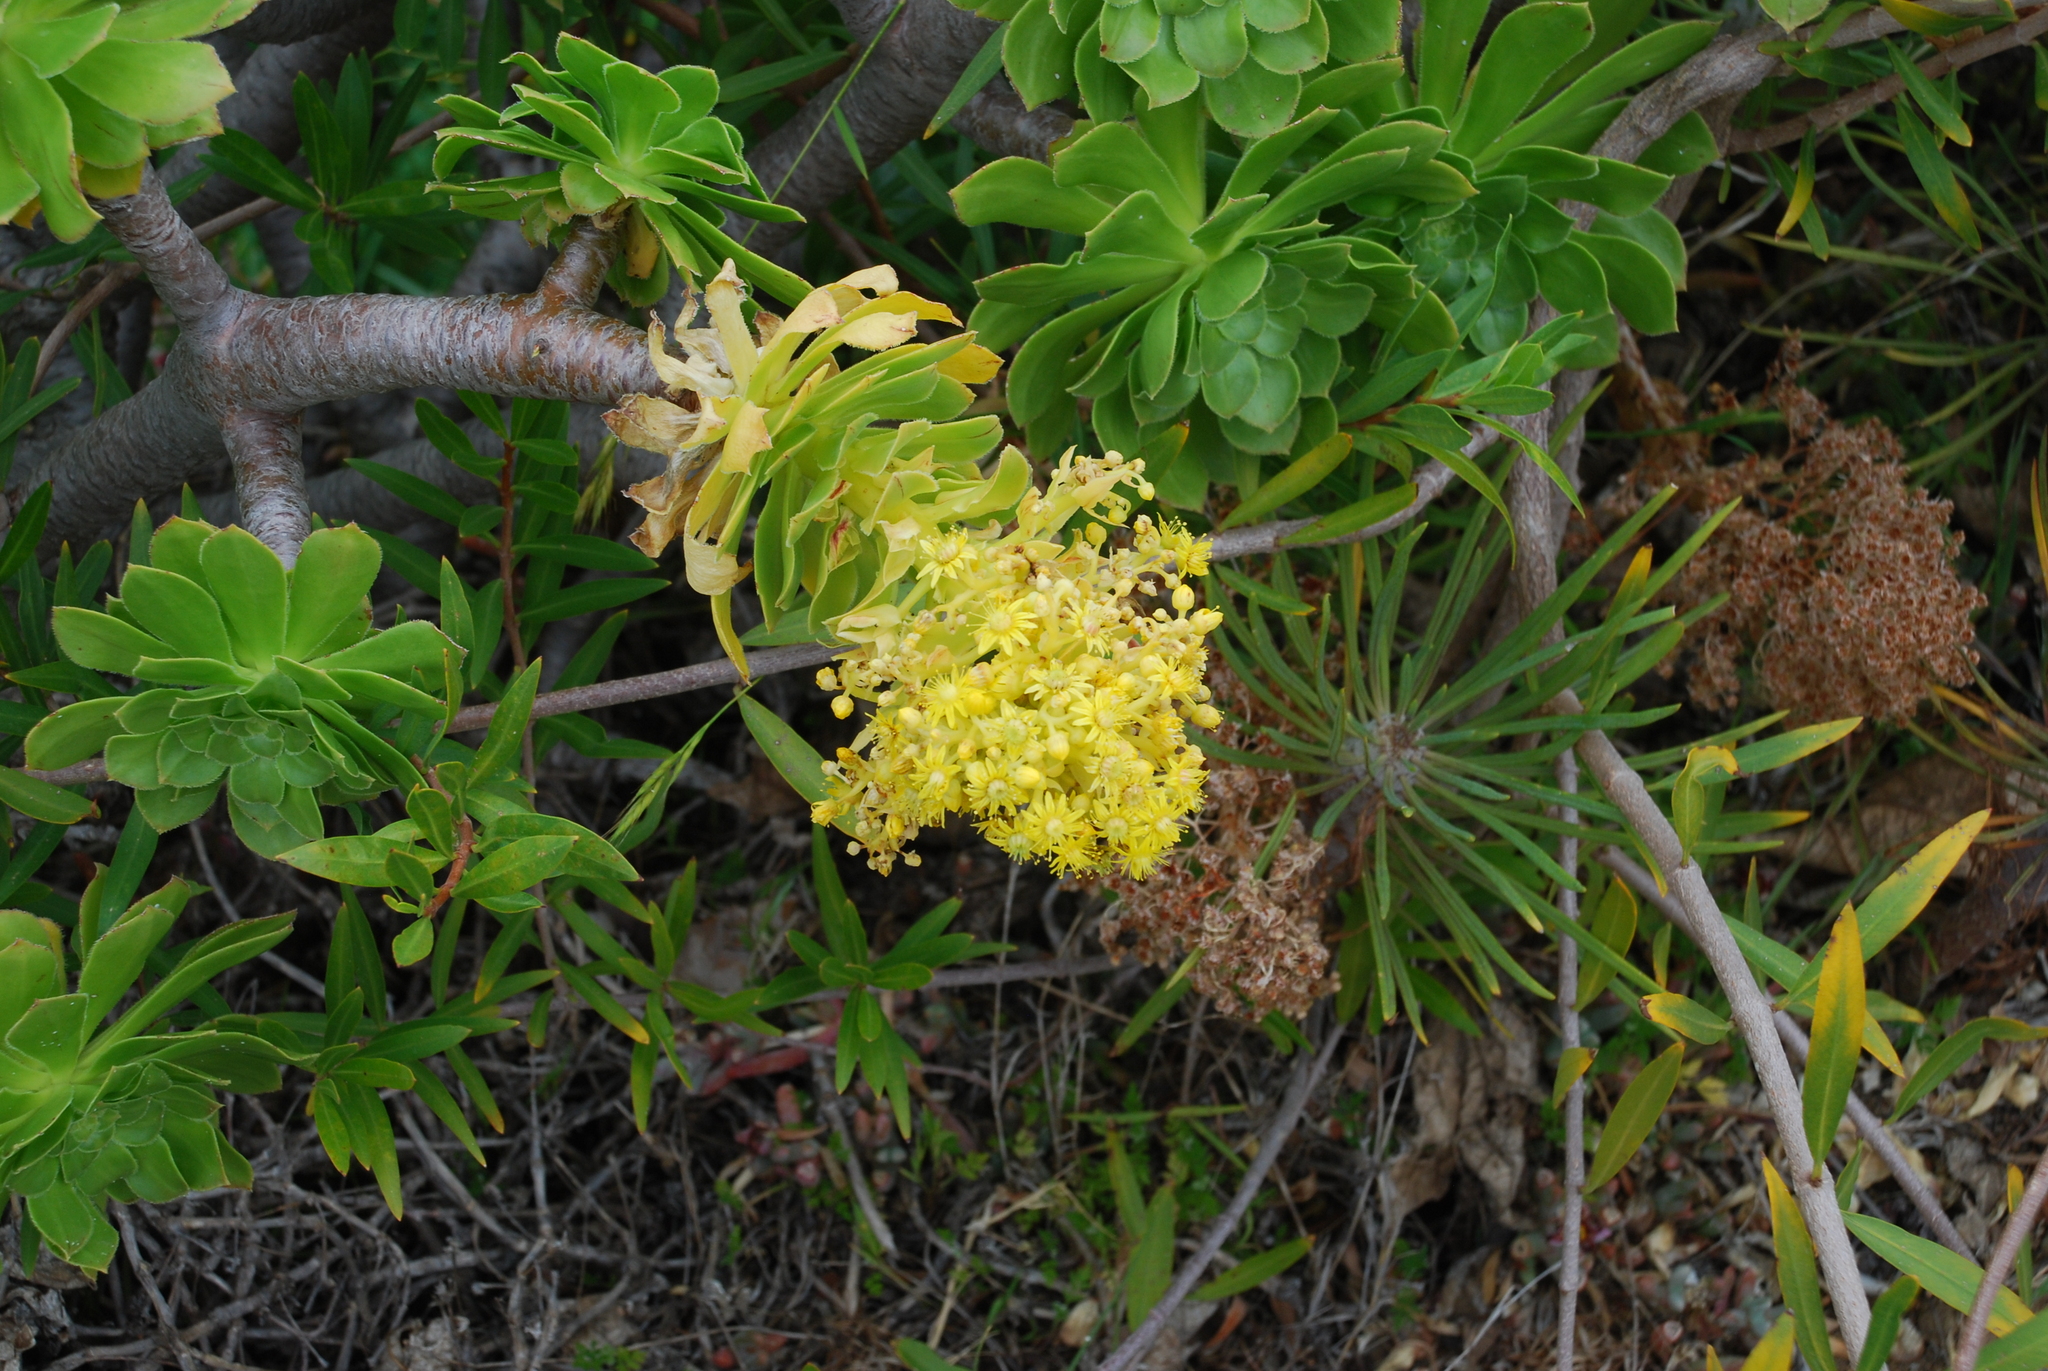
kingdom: Plantae
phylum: Tracheophyta
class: Magnoliopsida
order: Saxifragales
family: Crassulaceae
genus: Aeonium
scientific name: Aeonium arboreum
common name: Tree aeonium
